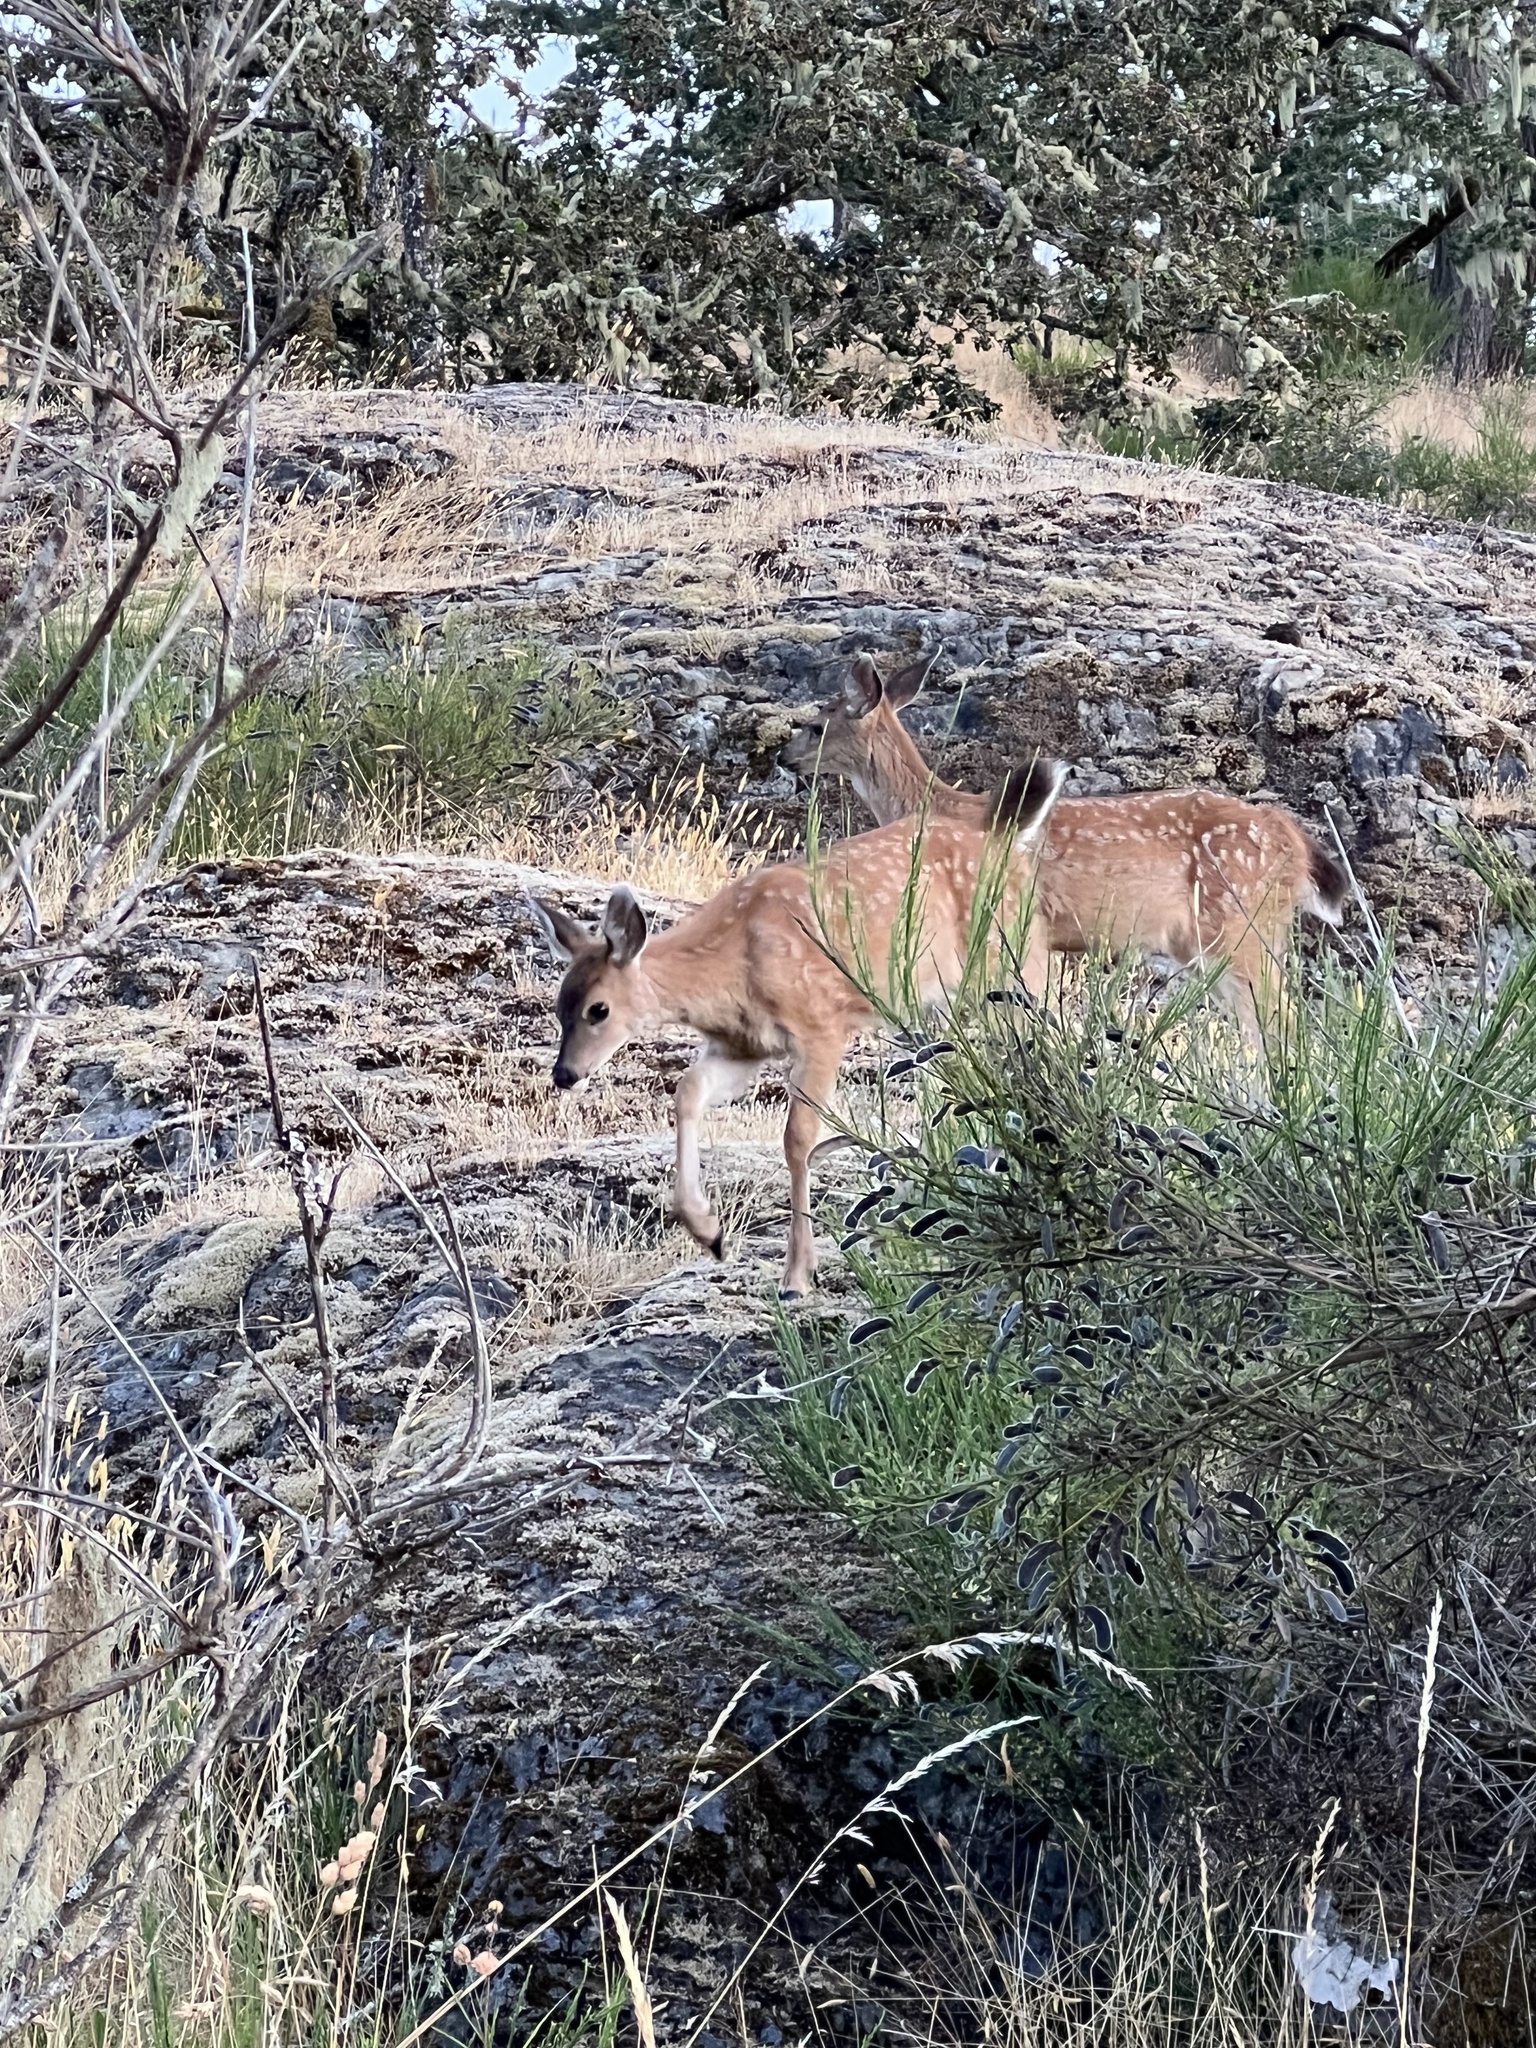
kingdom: Animalia
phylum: Chordata
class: Mammalia
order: Artiodactyla
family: Cervidae
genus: Odocoileus
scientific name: Odocoileus hemionus
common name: Mule deer
